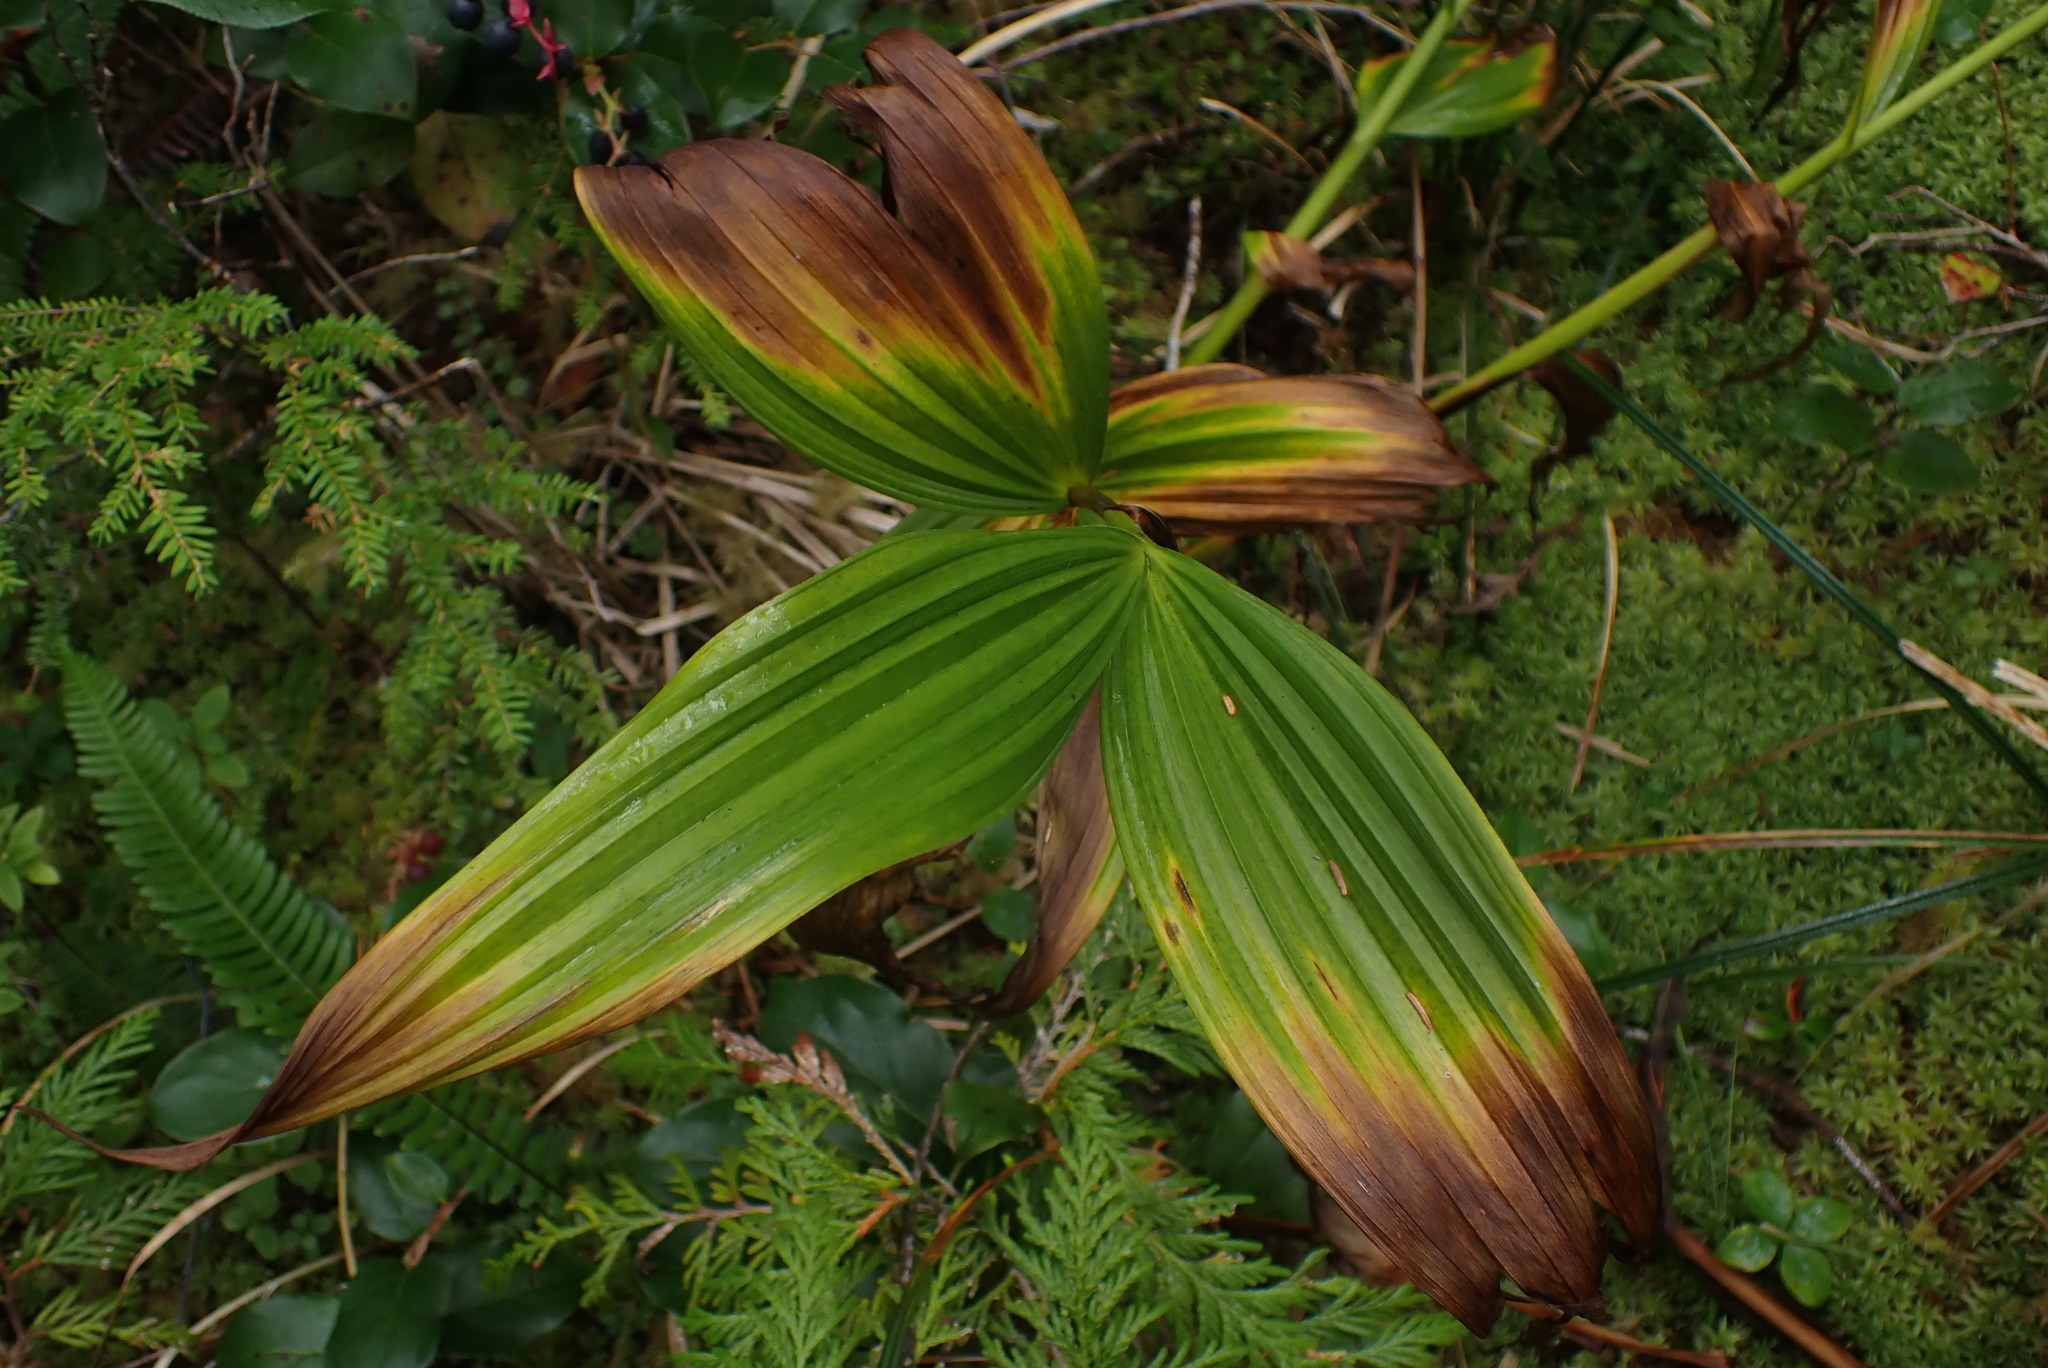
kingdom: Plantae
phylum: Tracheophyta
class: Liliopsida
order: Liliales
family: Melanthiaceae
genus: Veratrum
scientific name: Veratrum viride
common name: American false hellebore
